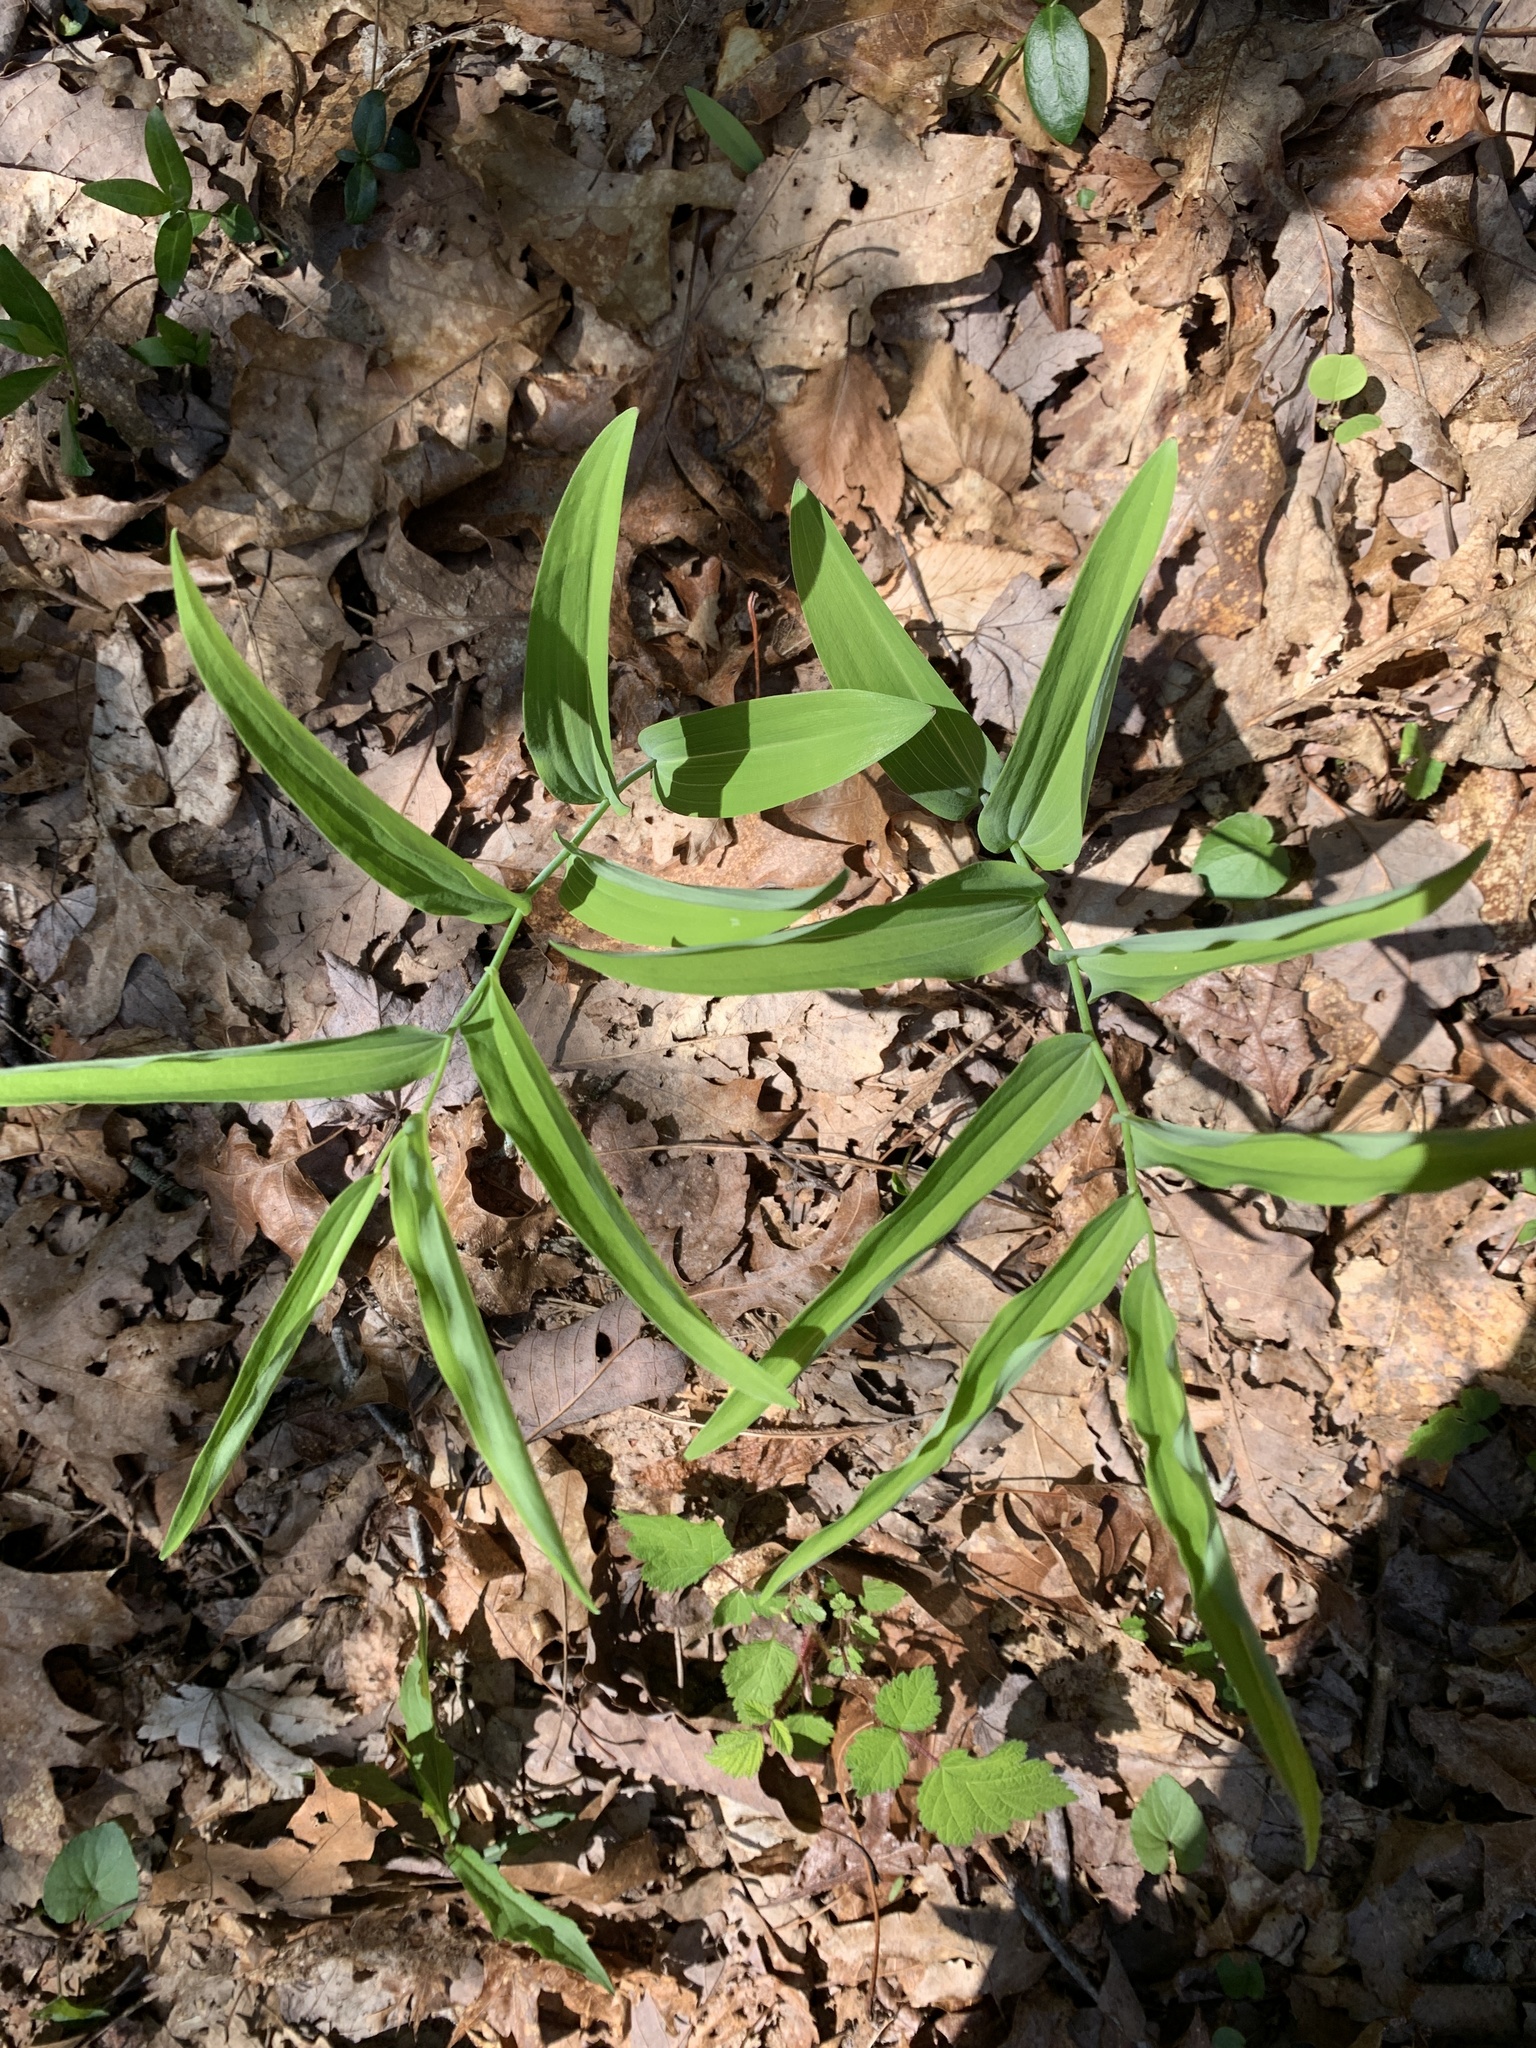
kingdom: Plantae
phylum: Tracheophyta
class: Liliopsida
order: Asparagales
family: Asparagaceae
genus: Polygonatum
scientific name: Polygonatum biflorum
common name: American solomon's-seal
